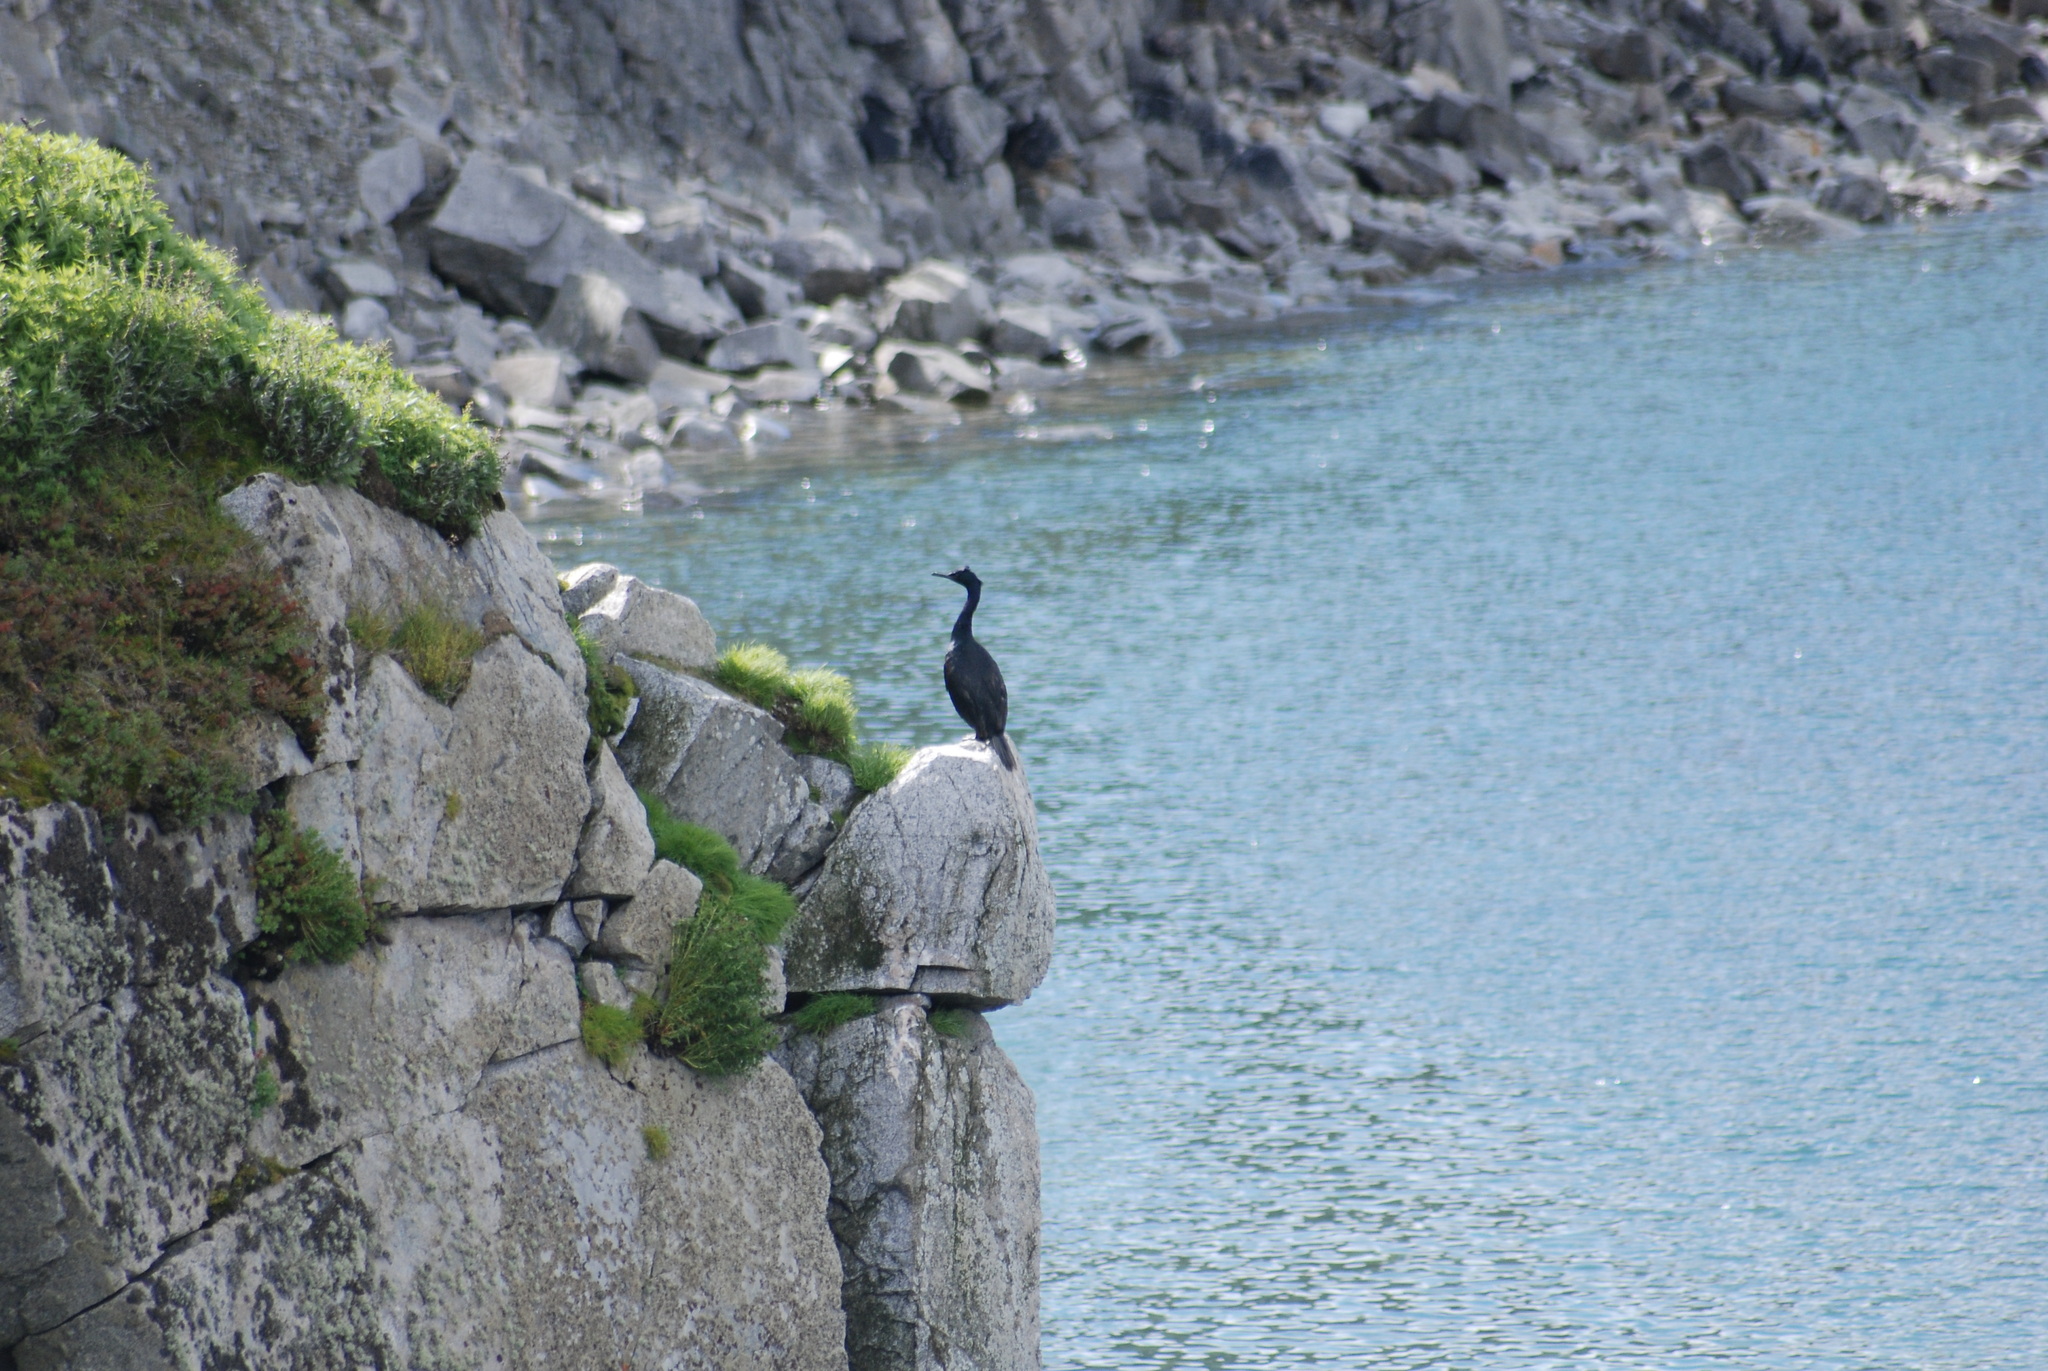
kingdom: Animalia
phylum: Chordata
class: Aves
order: Suliformes
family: Phalacrocoracidae
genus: Phalacrocorax
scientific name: Phalacrocorax pelagicus
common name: Pelagic cormorant
